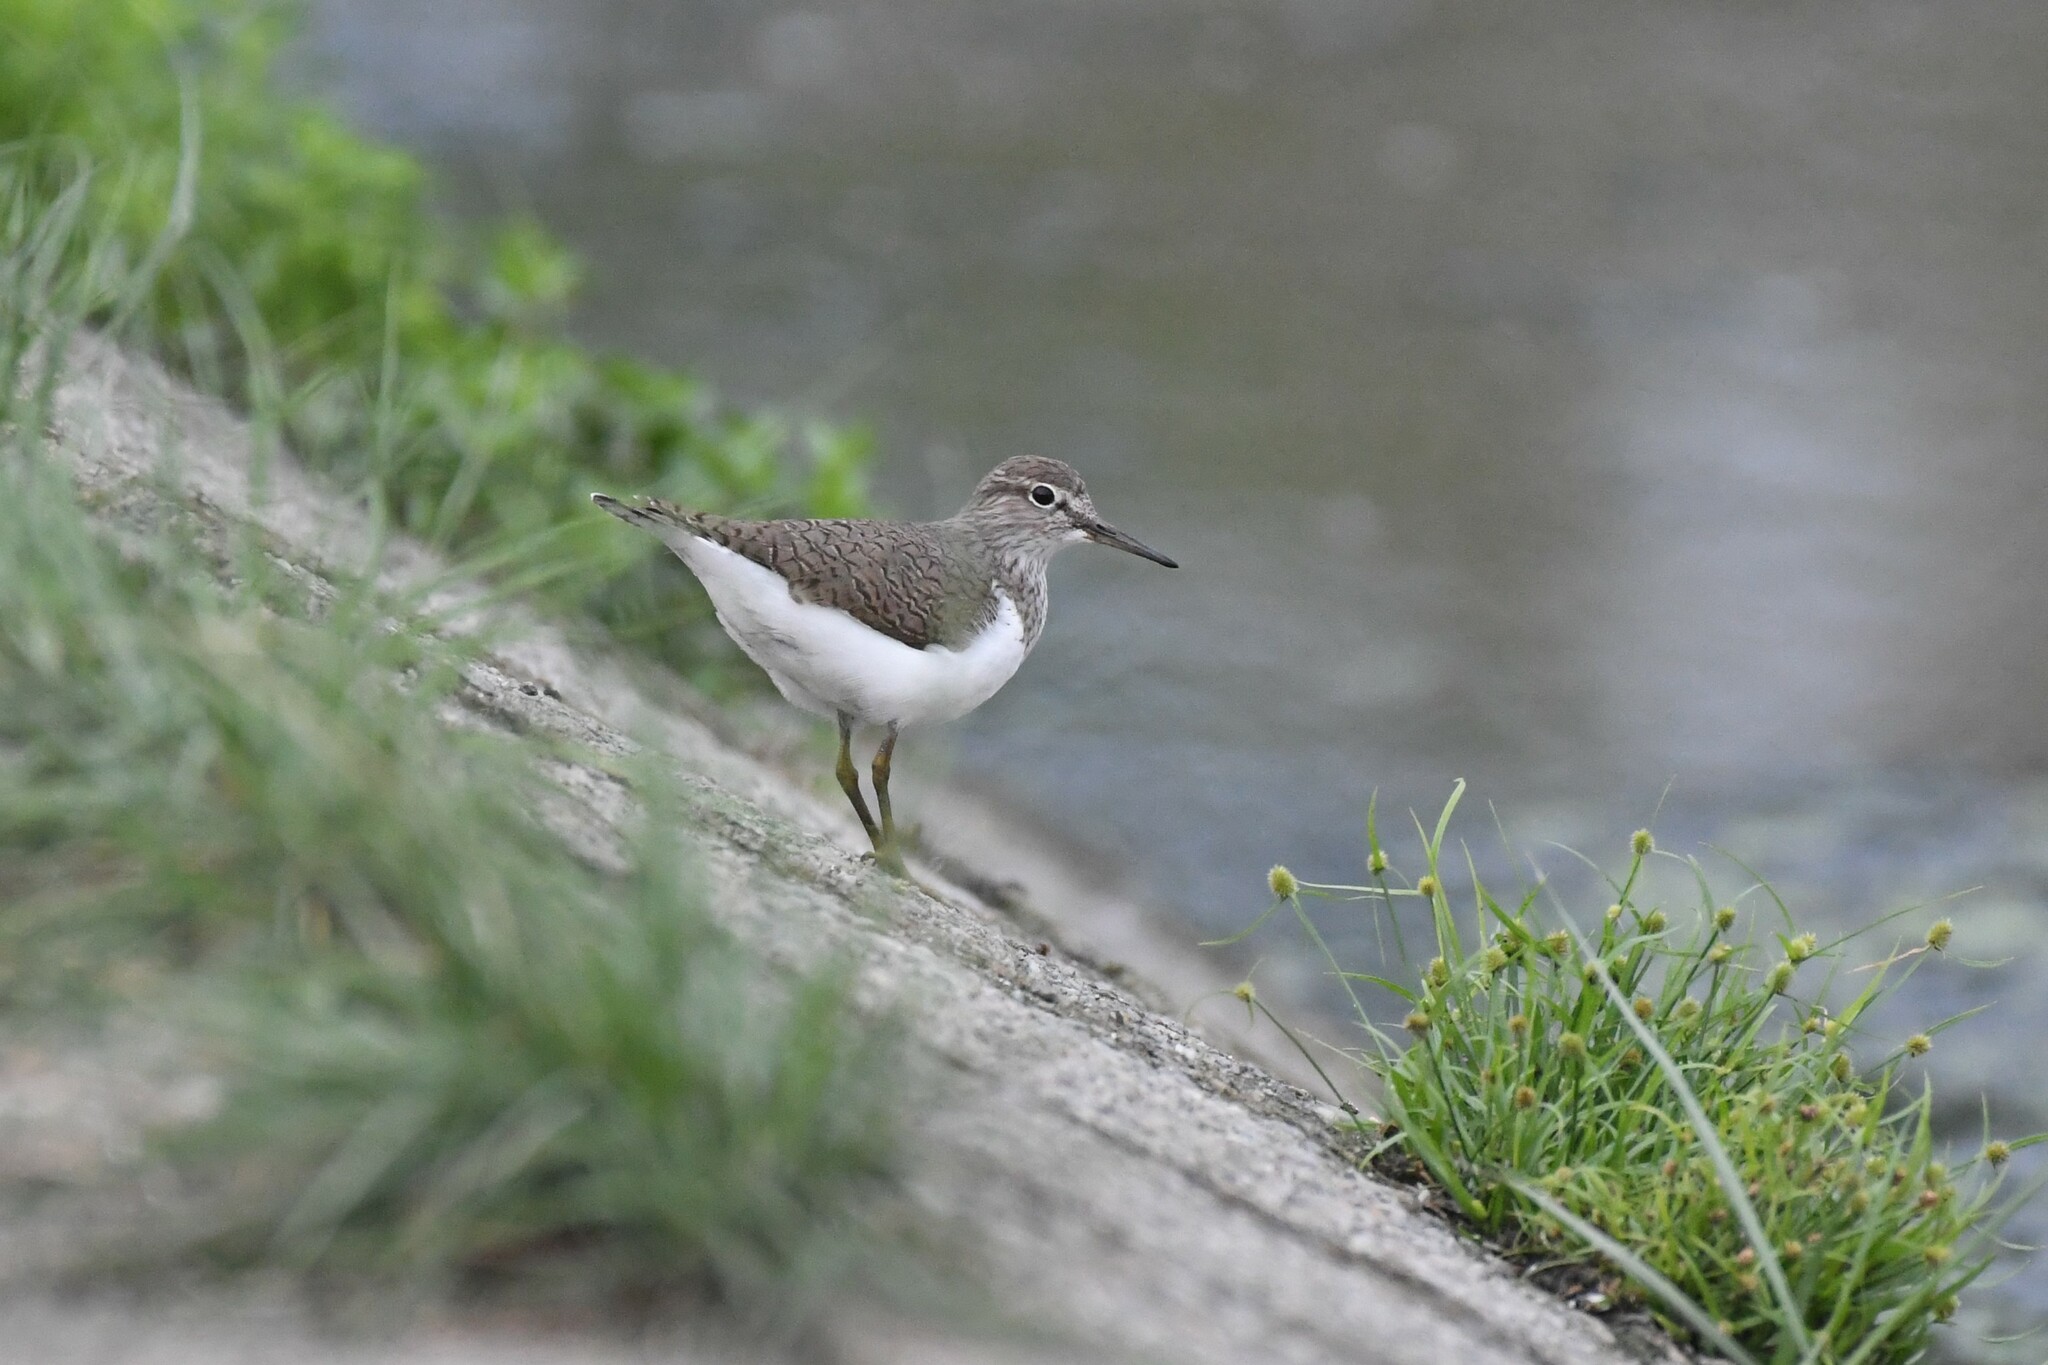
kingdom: Animalia
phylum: Chordata
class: Aves
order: Charadriiformes
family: Scolopacidae
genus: Actitis
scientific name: Actitis hypoleucos
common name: Common sandpiper
